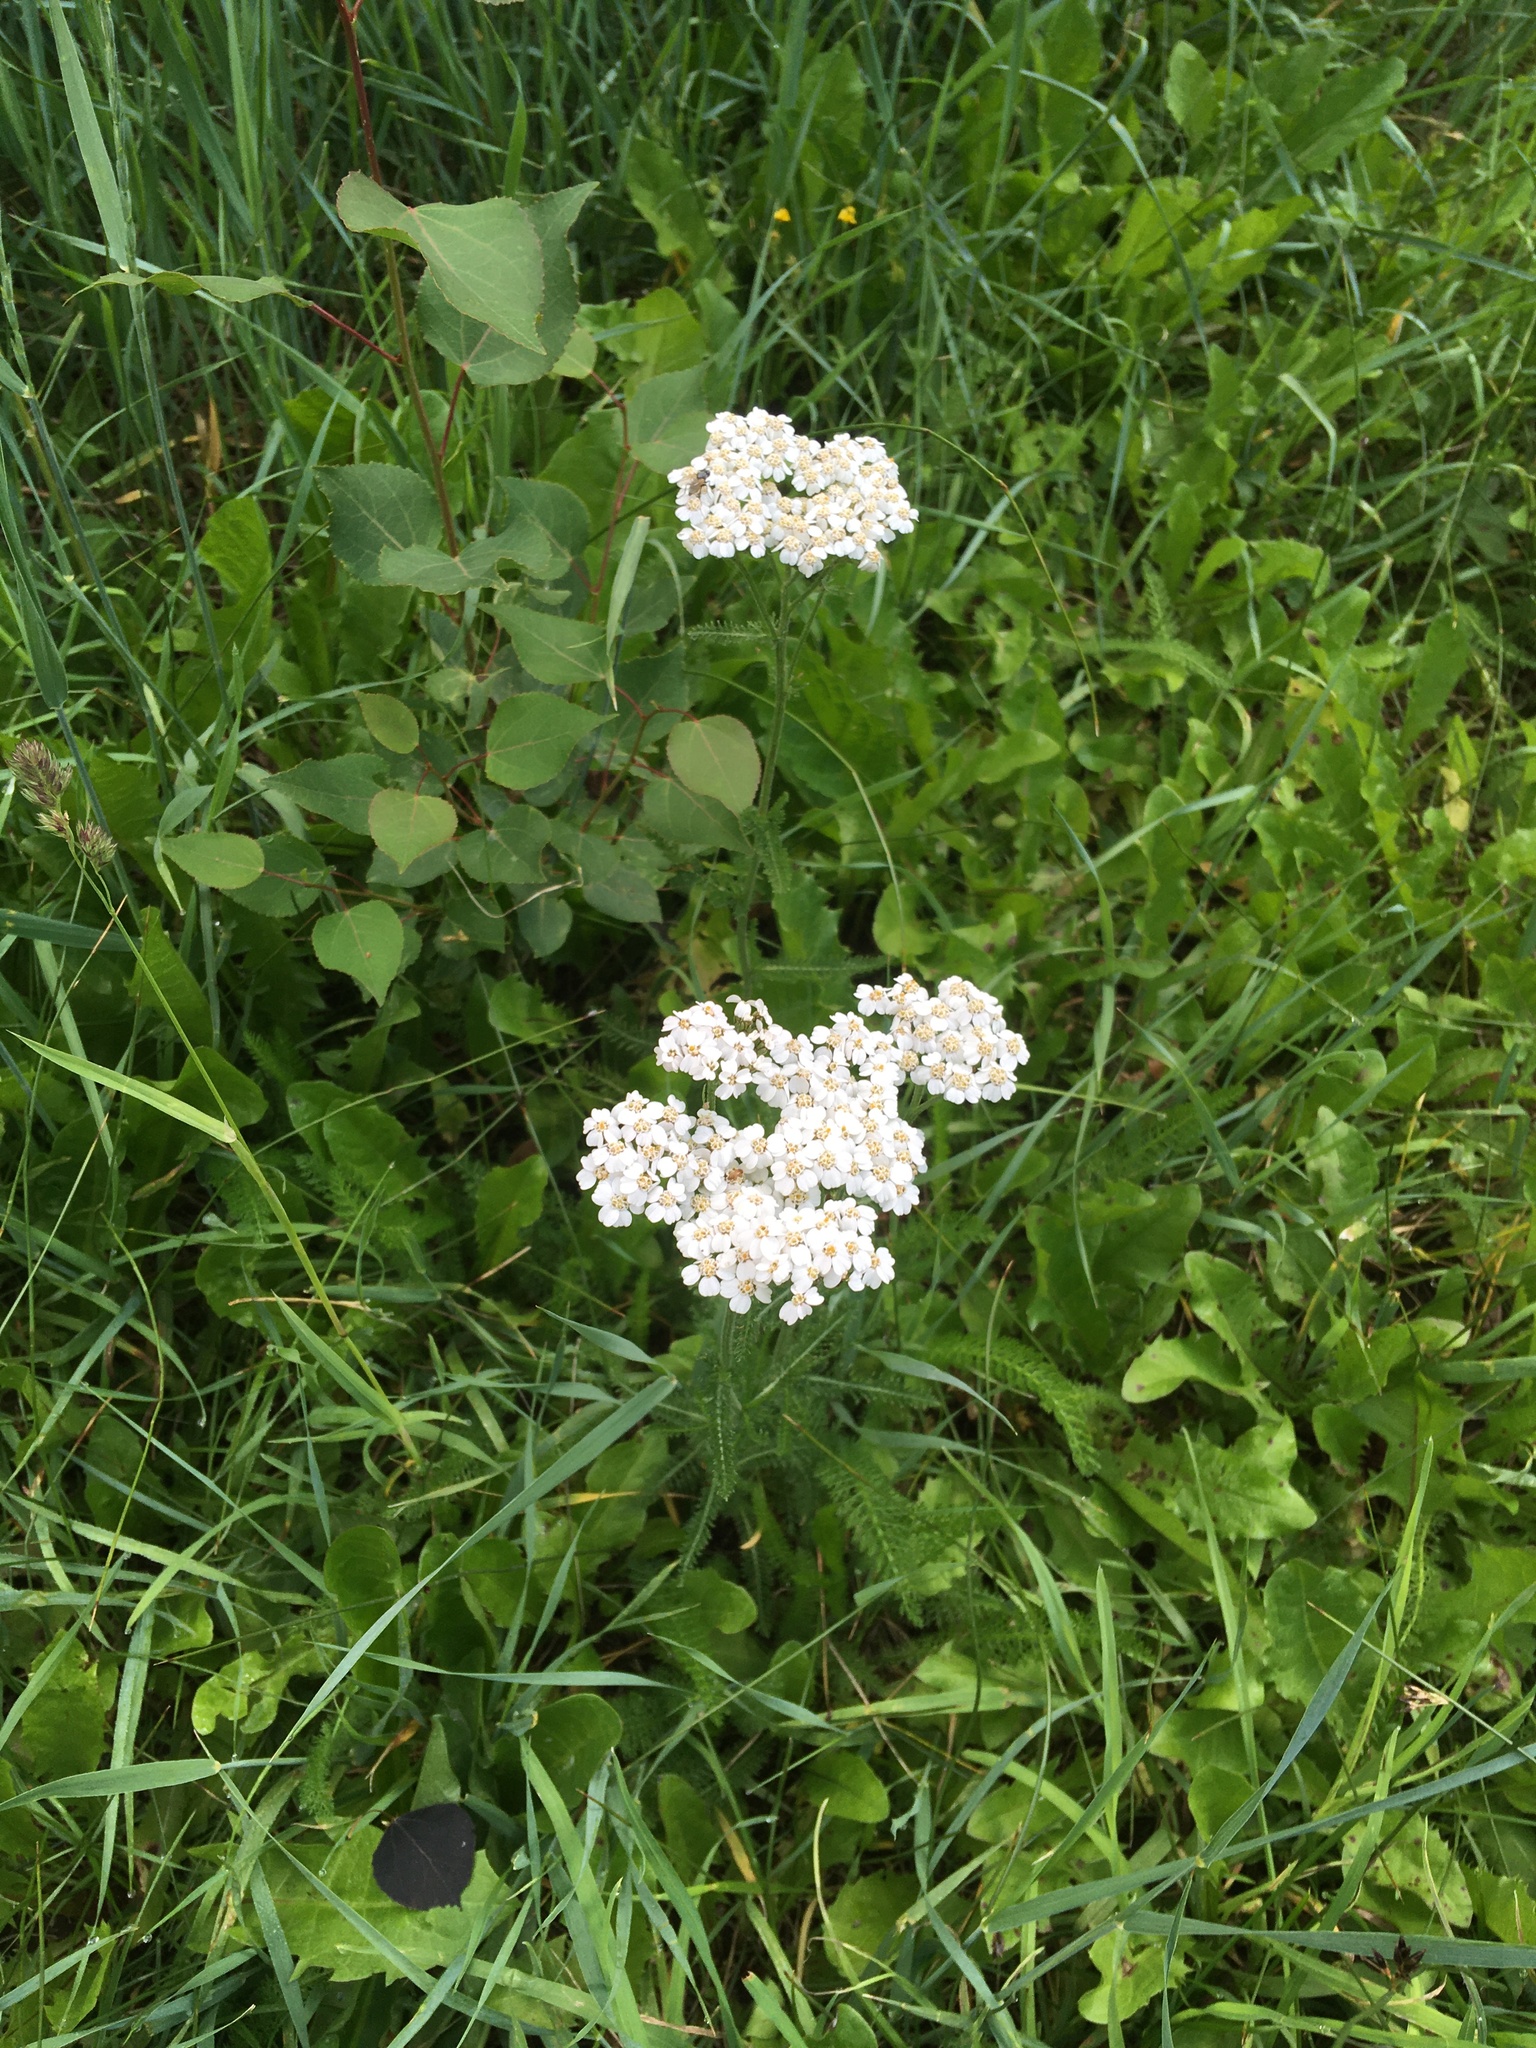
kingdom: Plantae
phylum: Tracheophyta
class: Magnoliopsida
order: Asterales
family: Asteraceae
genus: Achillea
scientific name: Achillea millefolium
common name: Yarrow
